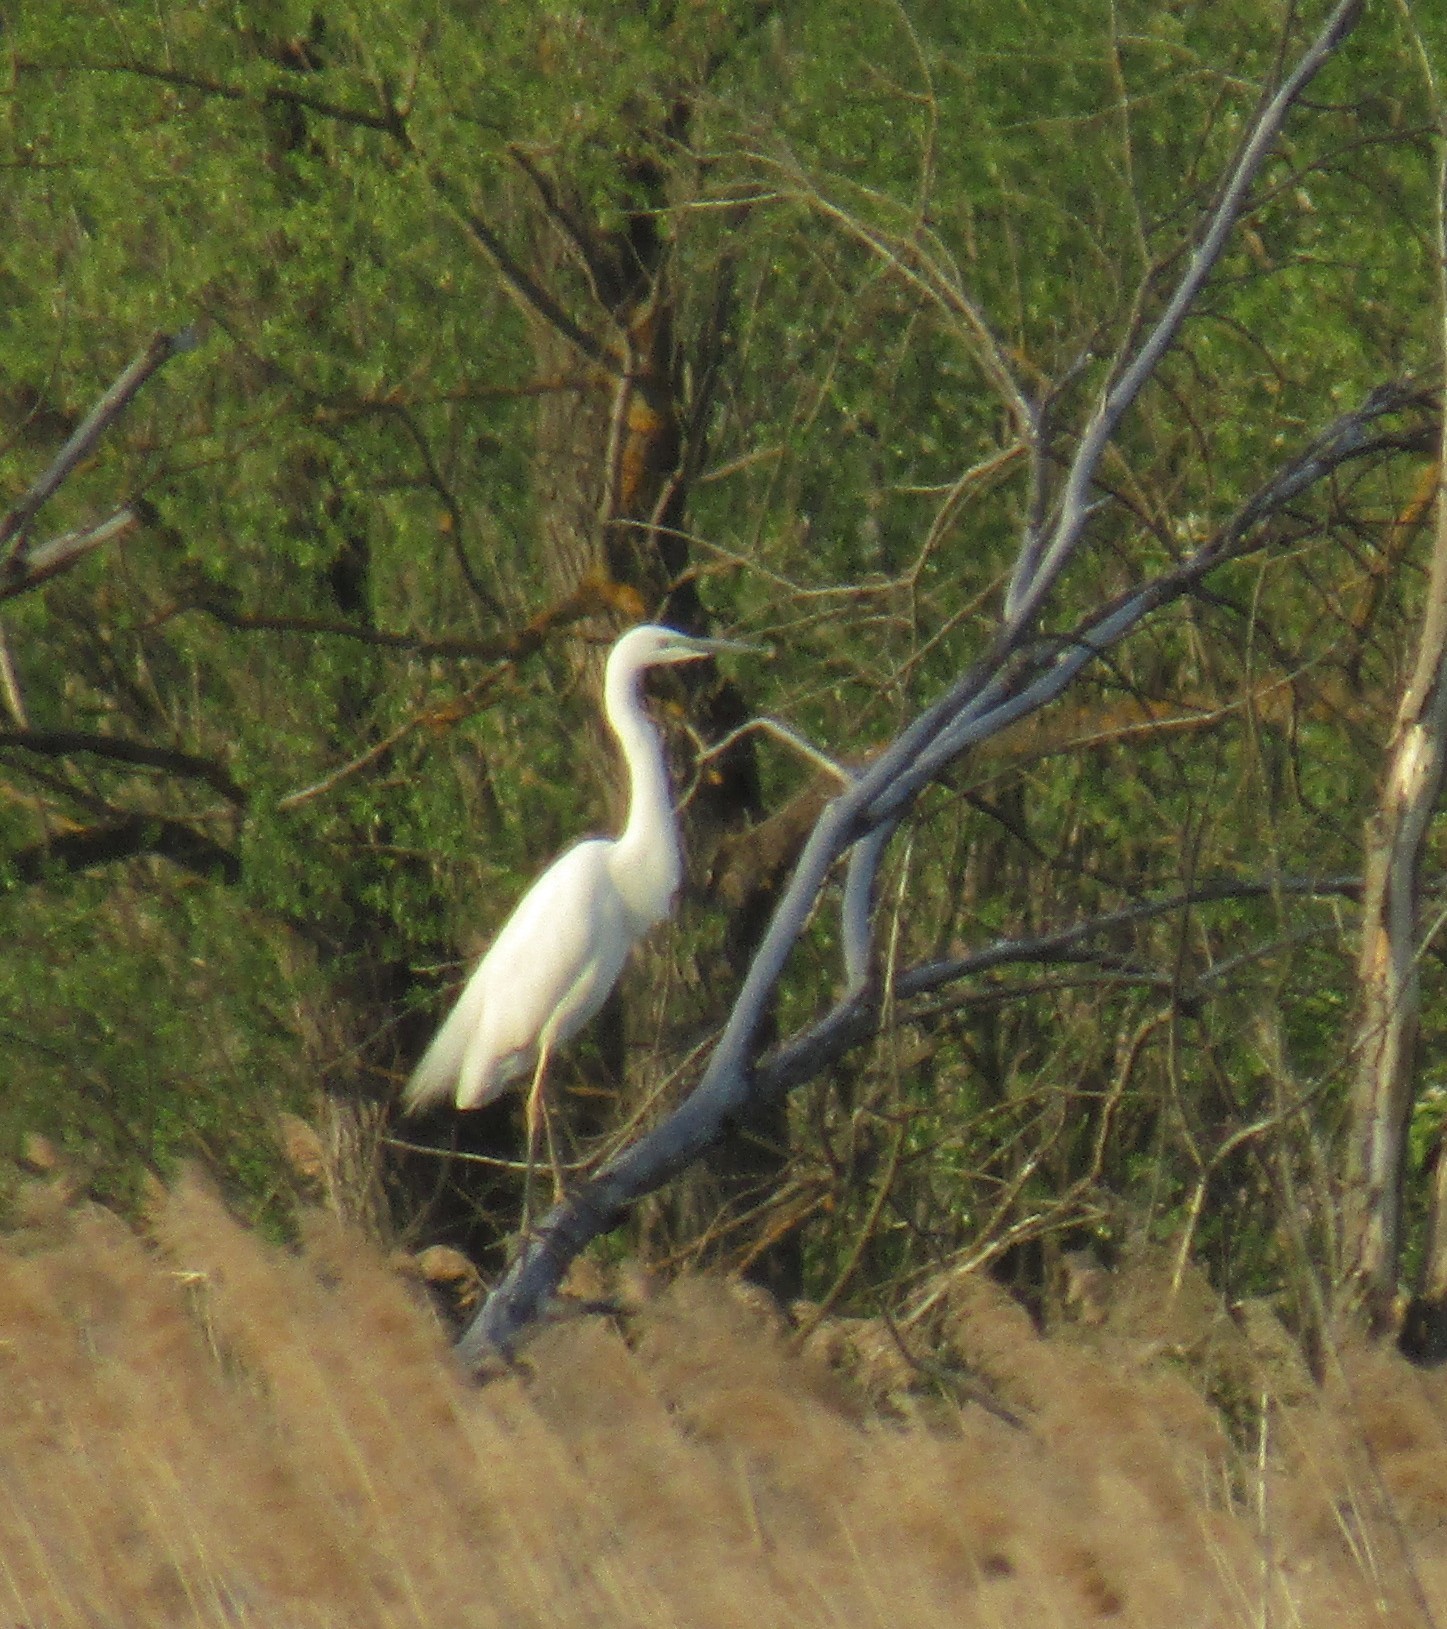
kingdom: Animalia
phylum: Chordata
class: Aves
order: Pelecaniformes
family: Ardeidae
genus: Ardea
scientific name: Ardea alba
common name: Great egret
